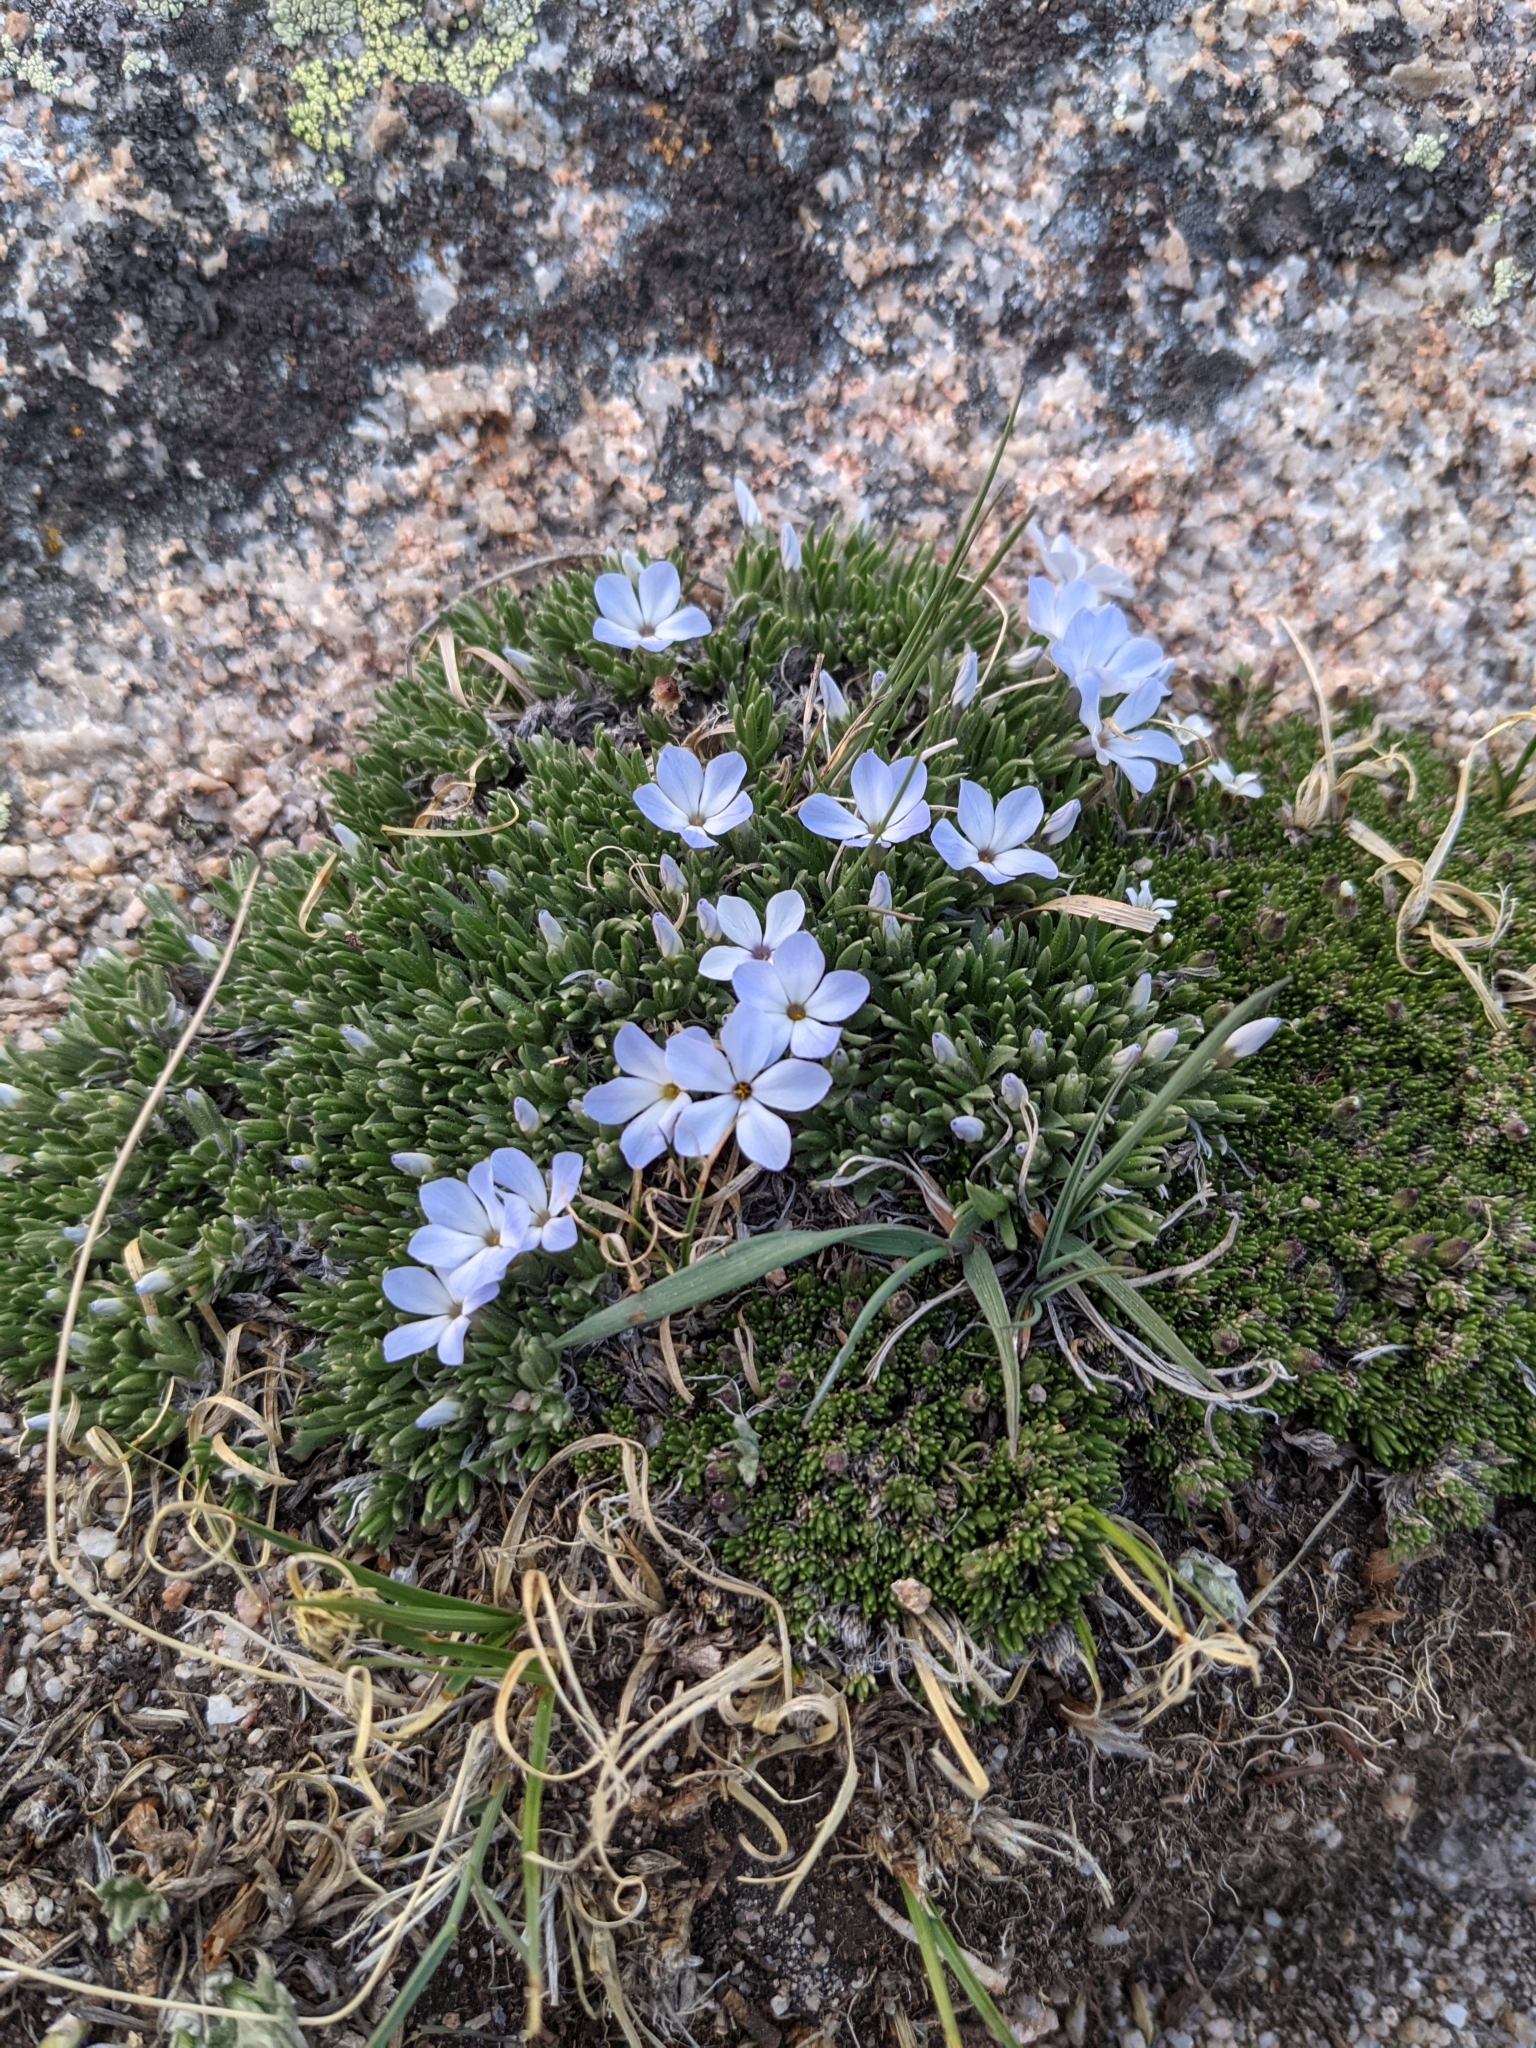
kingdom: Plantae
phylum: Tracheophyta
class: Magnoliopsida
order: Ericales
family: Polemoniaceae
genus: Phlox
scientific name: Phlox condensata
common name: Compact phlox
